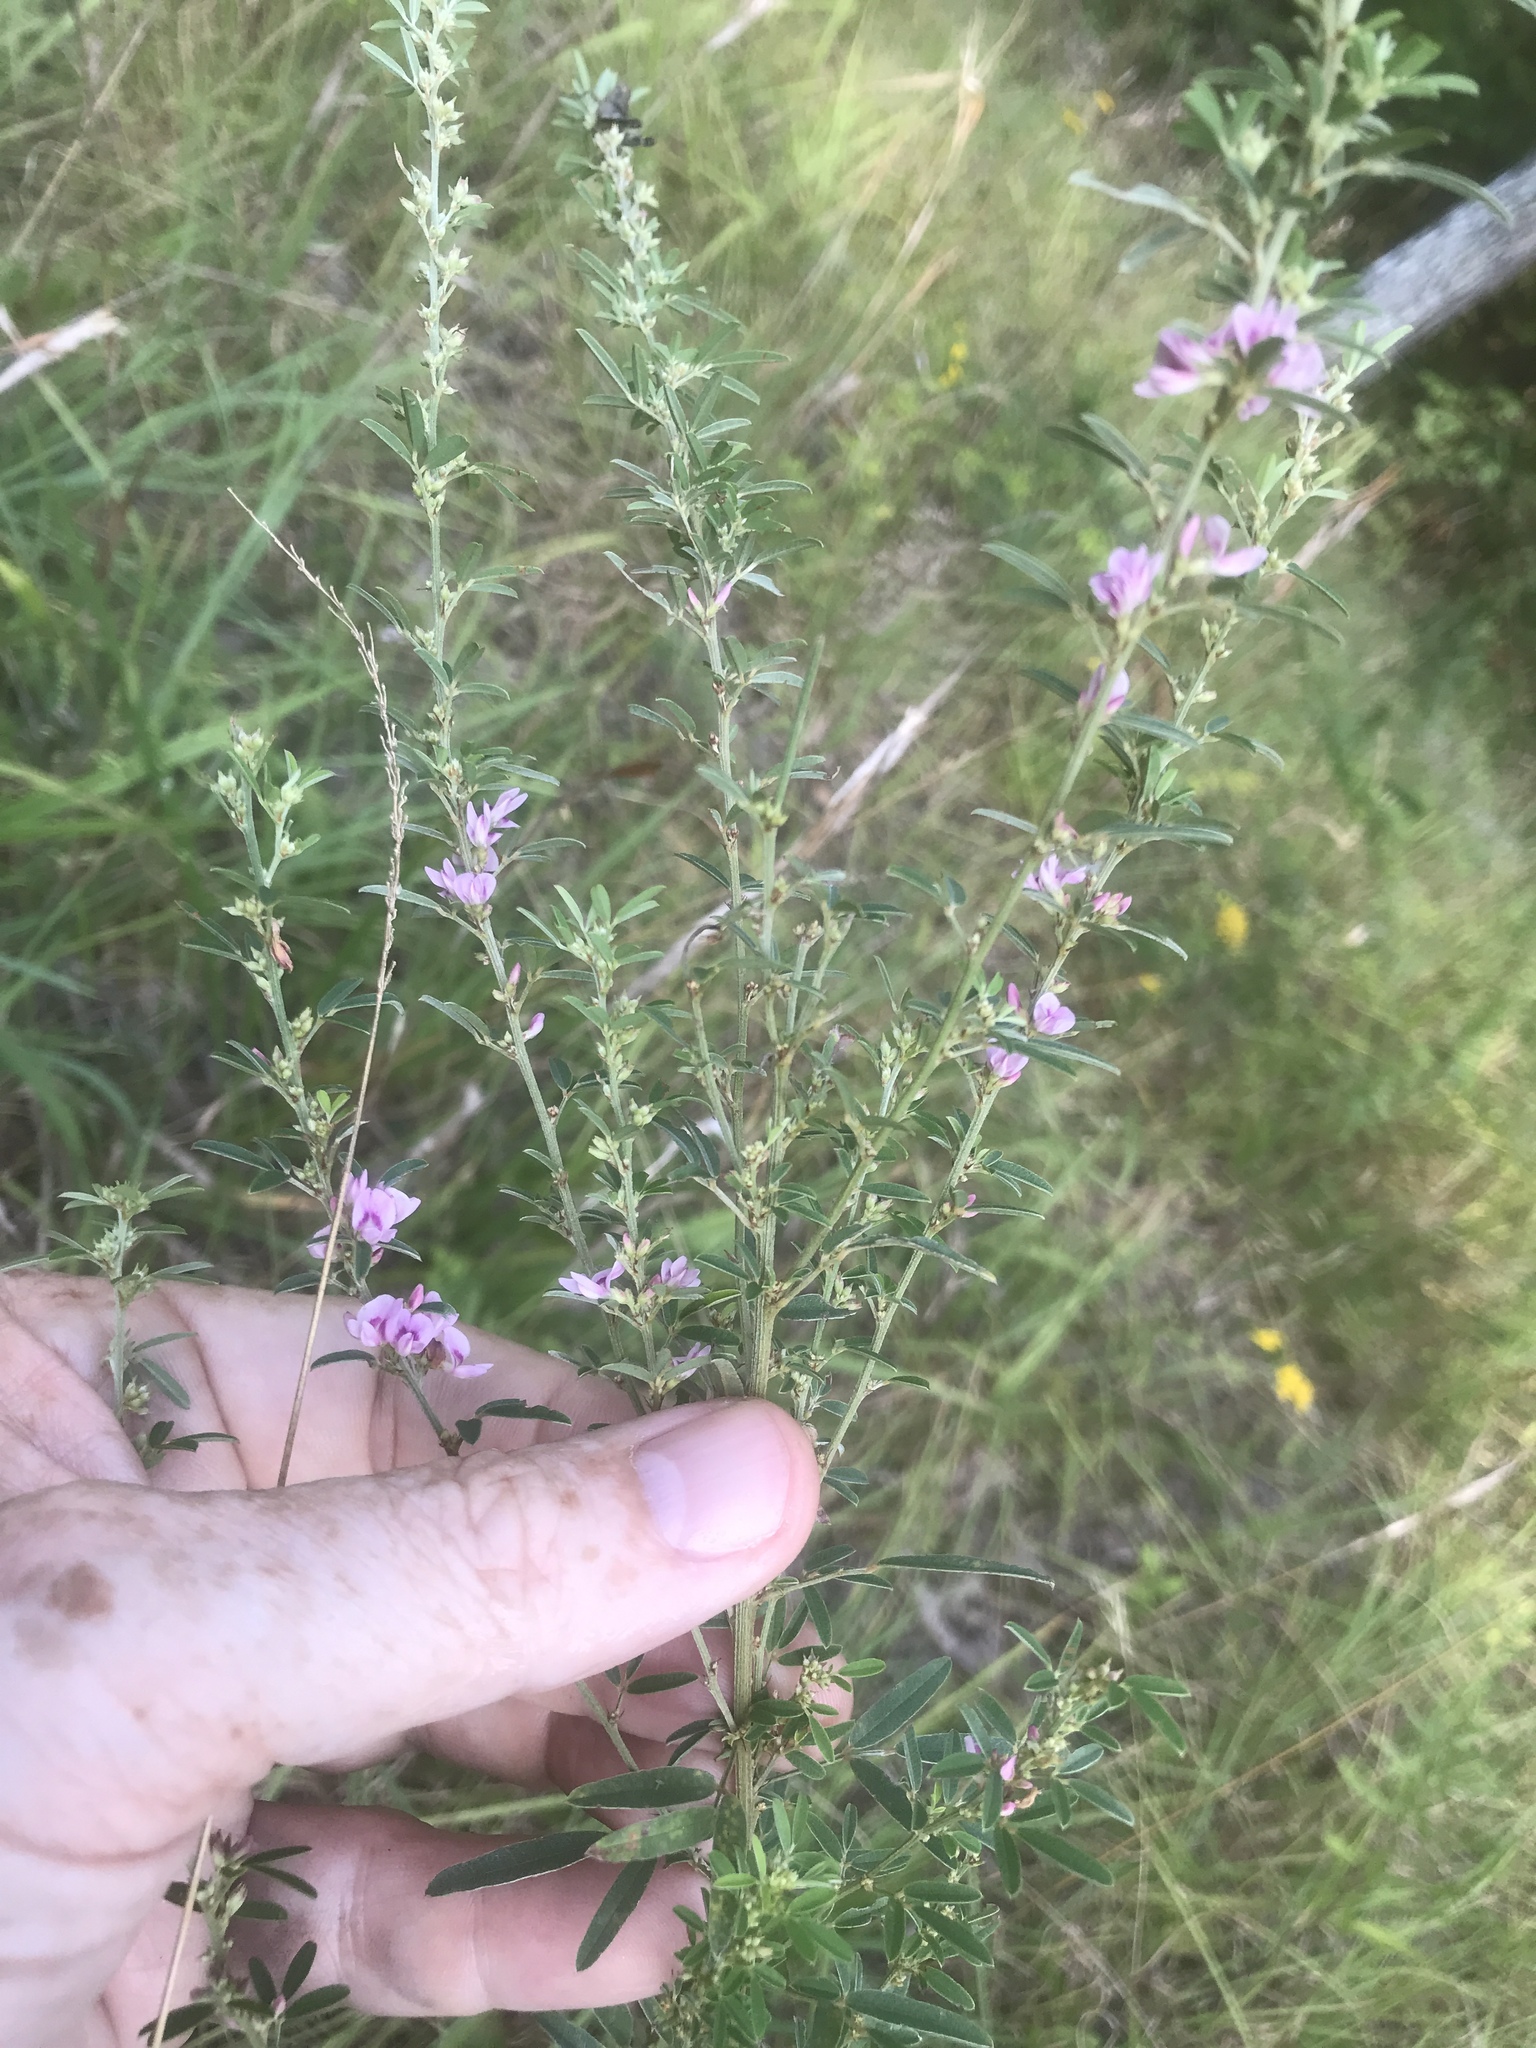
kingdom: Plantae
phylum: Tracheophyta
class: Magnoliopsida
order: Fabales
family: Fabaceae
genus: Lespedeza
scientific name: Lespedeza virginica
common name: Slender bush-clover
